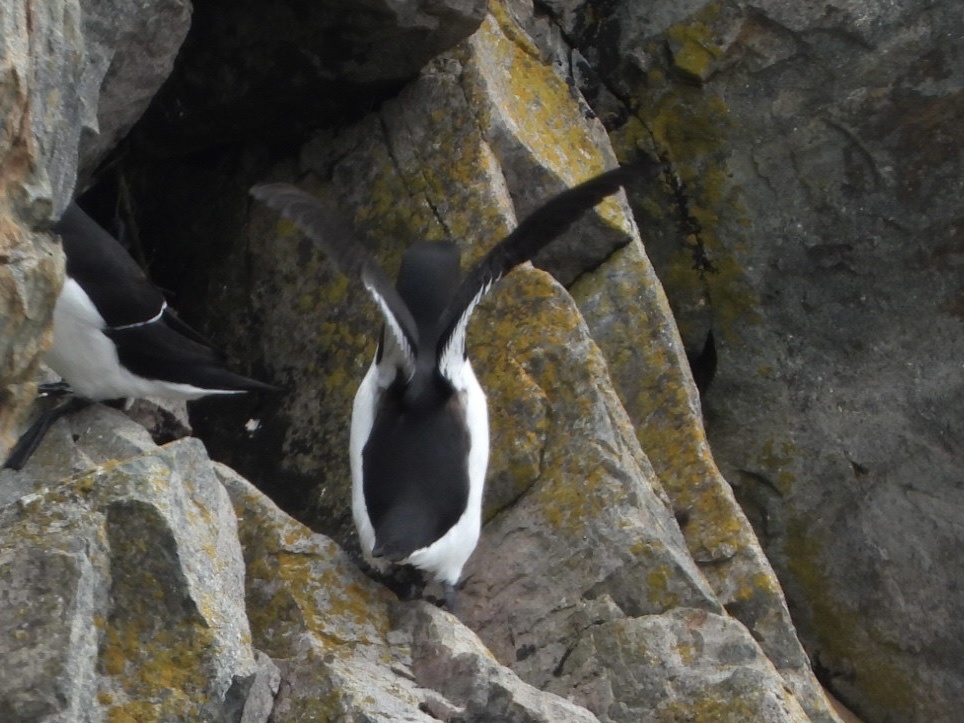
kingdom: Animalia
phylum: Chordata
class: Aves
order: Charadriiformes
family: Alcidae
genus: Alca
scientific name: Alca torda
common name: Razorbill
